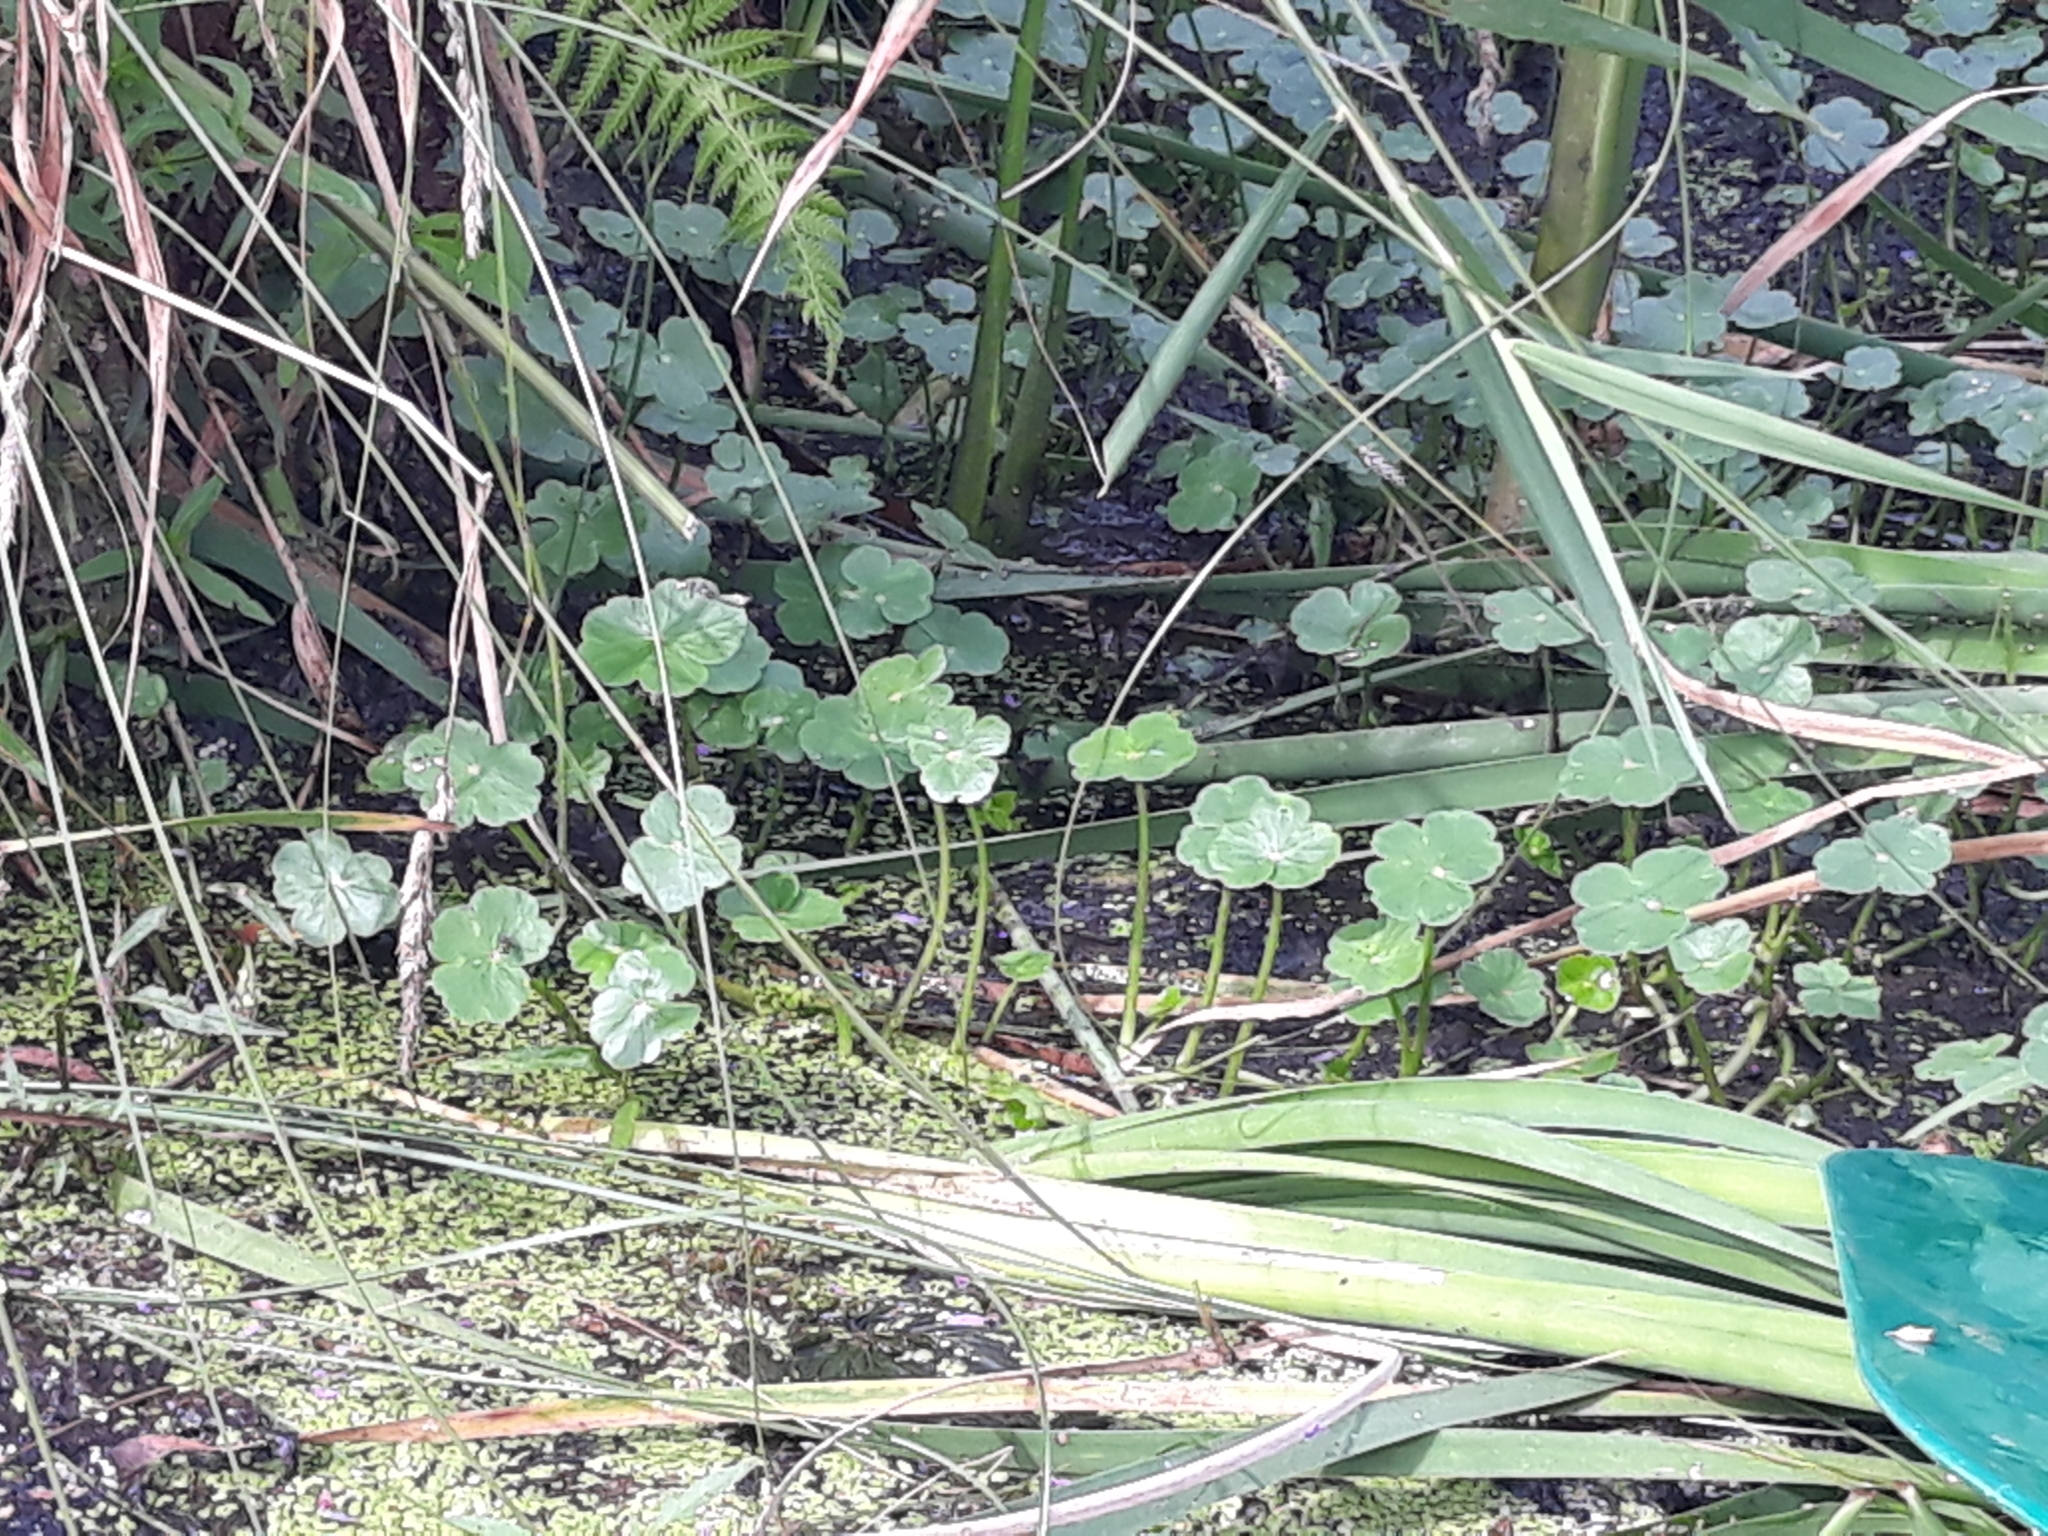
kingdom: Plantae
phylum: Tracheophyta
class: Magnoliopsida
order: Apiales
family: Araliaceae
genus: Hydrocotyle
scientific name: Hydrocotyle ranunculoides
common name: Floating pennywort
